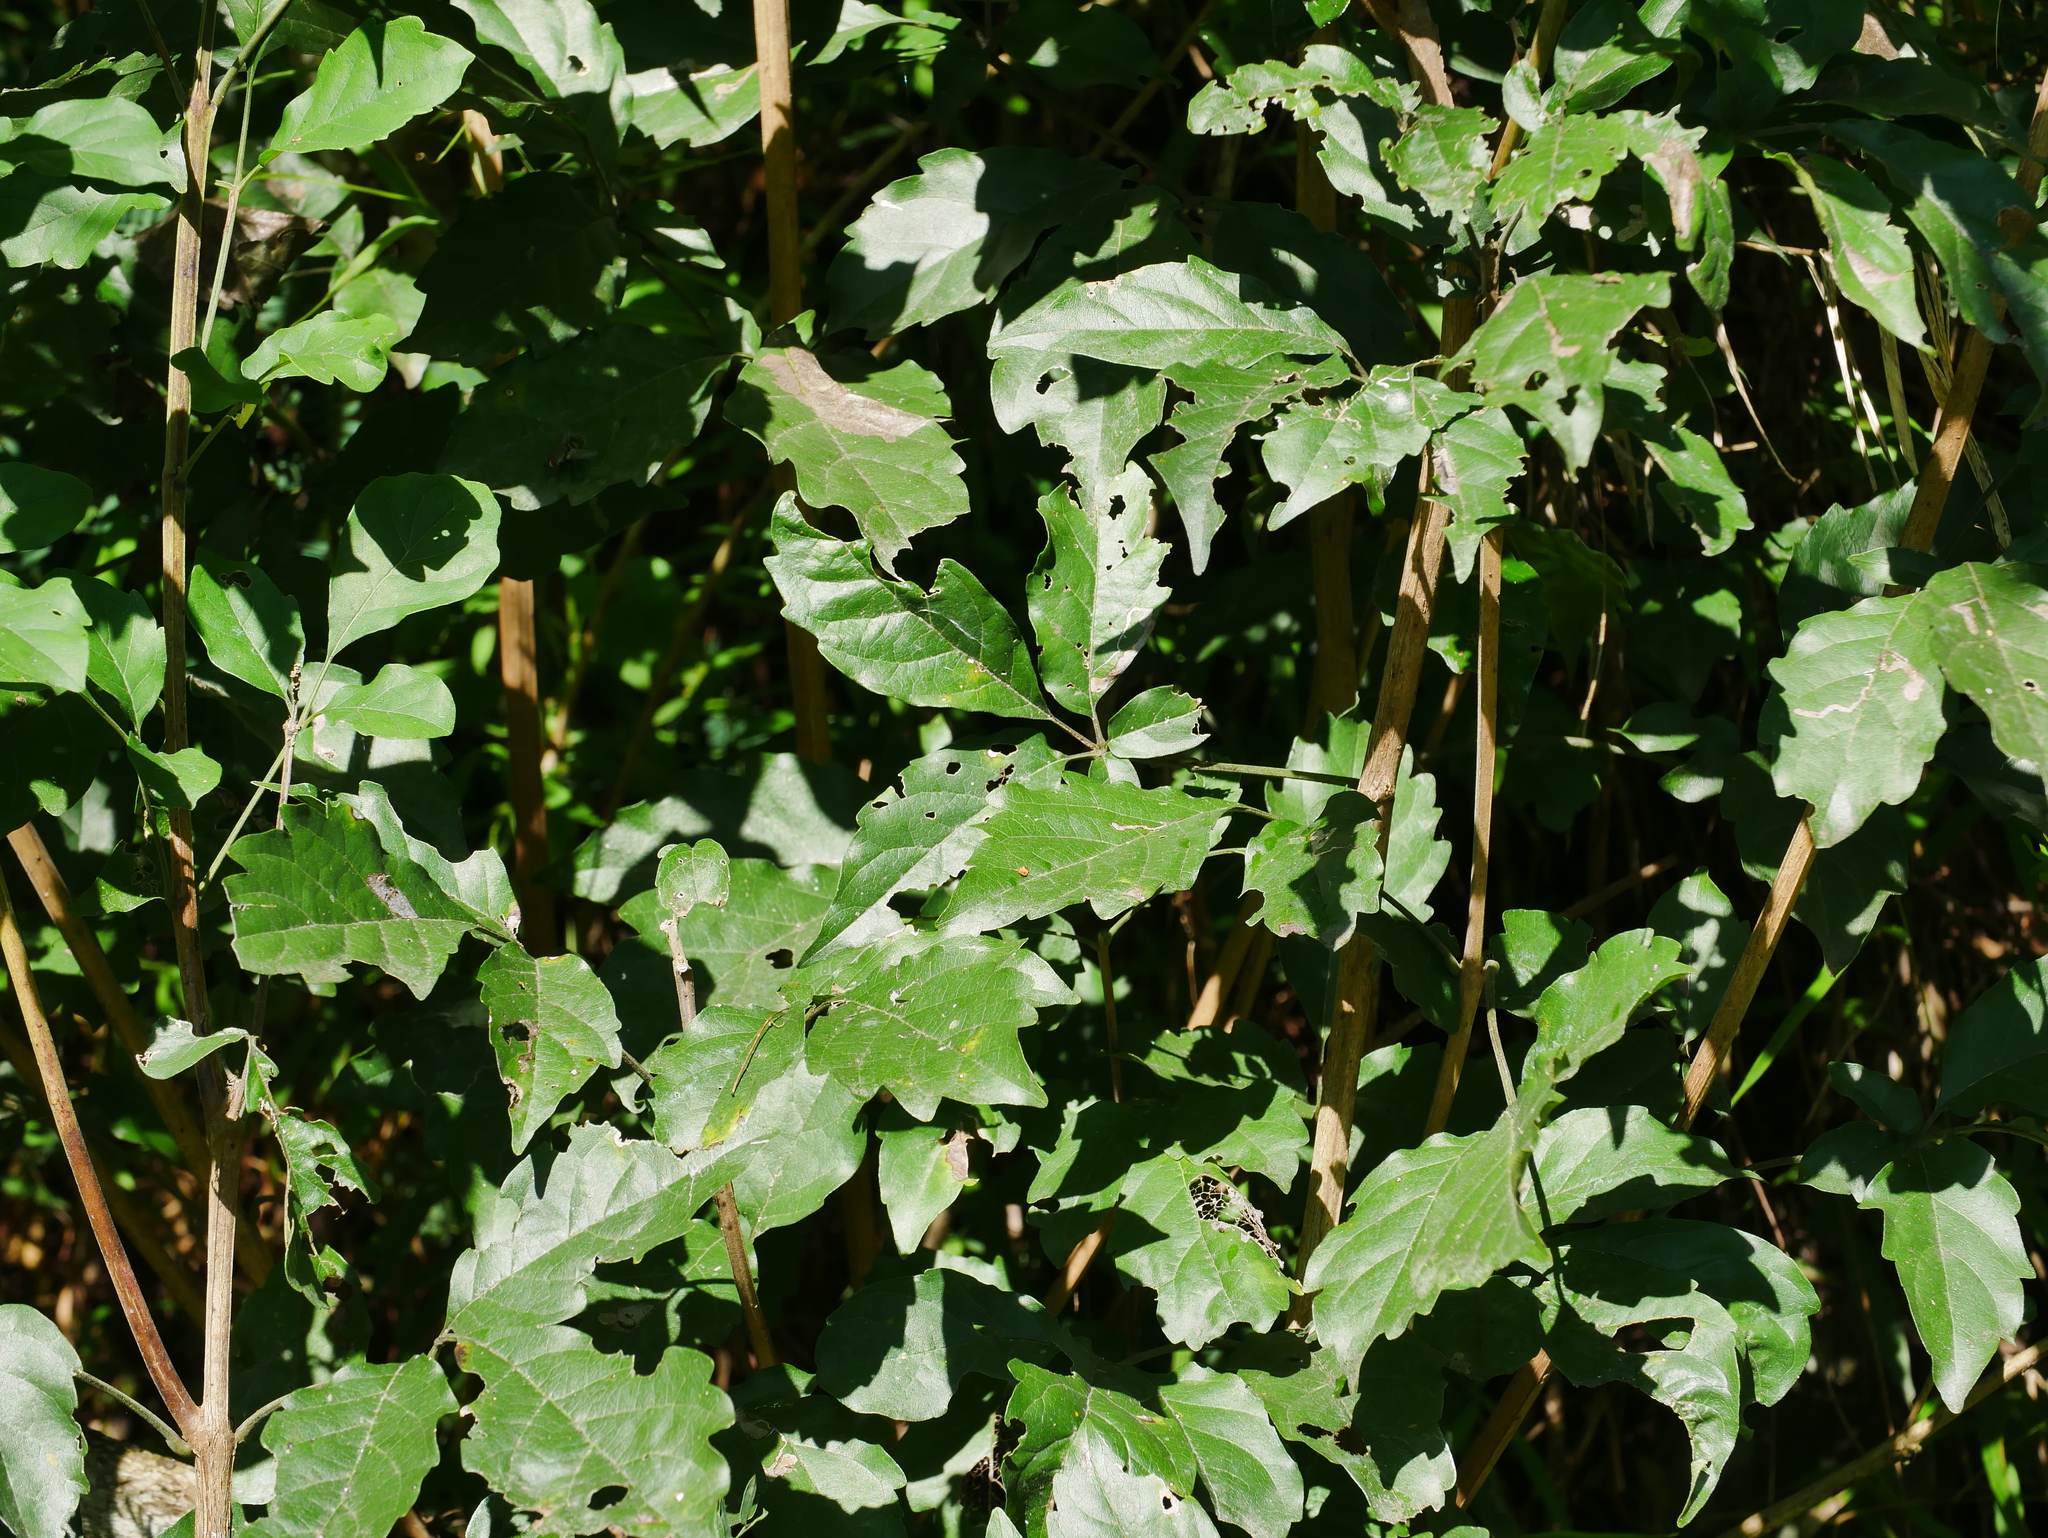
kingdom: Plantae
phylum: Tracheophyta
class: Magnoliopsida
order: Lamiales
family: Lamiaceae
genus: Vitex
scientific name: Vitex quinata
